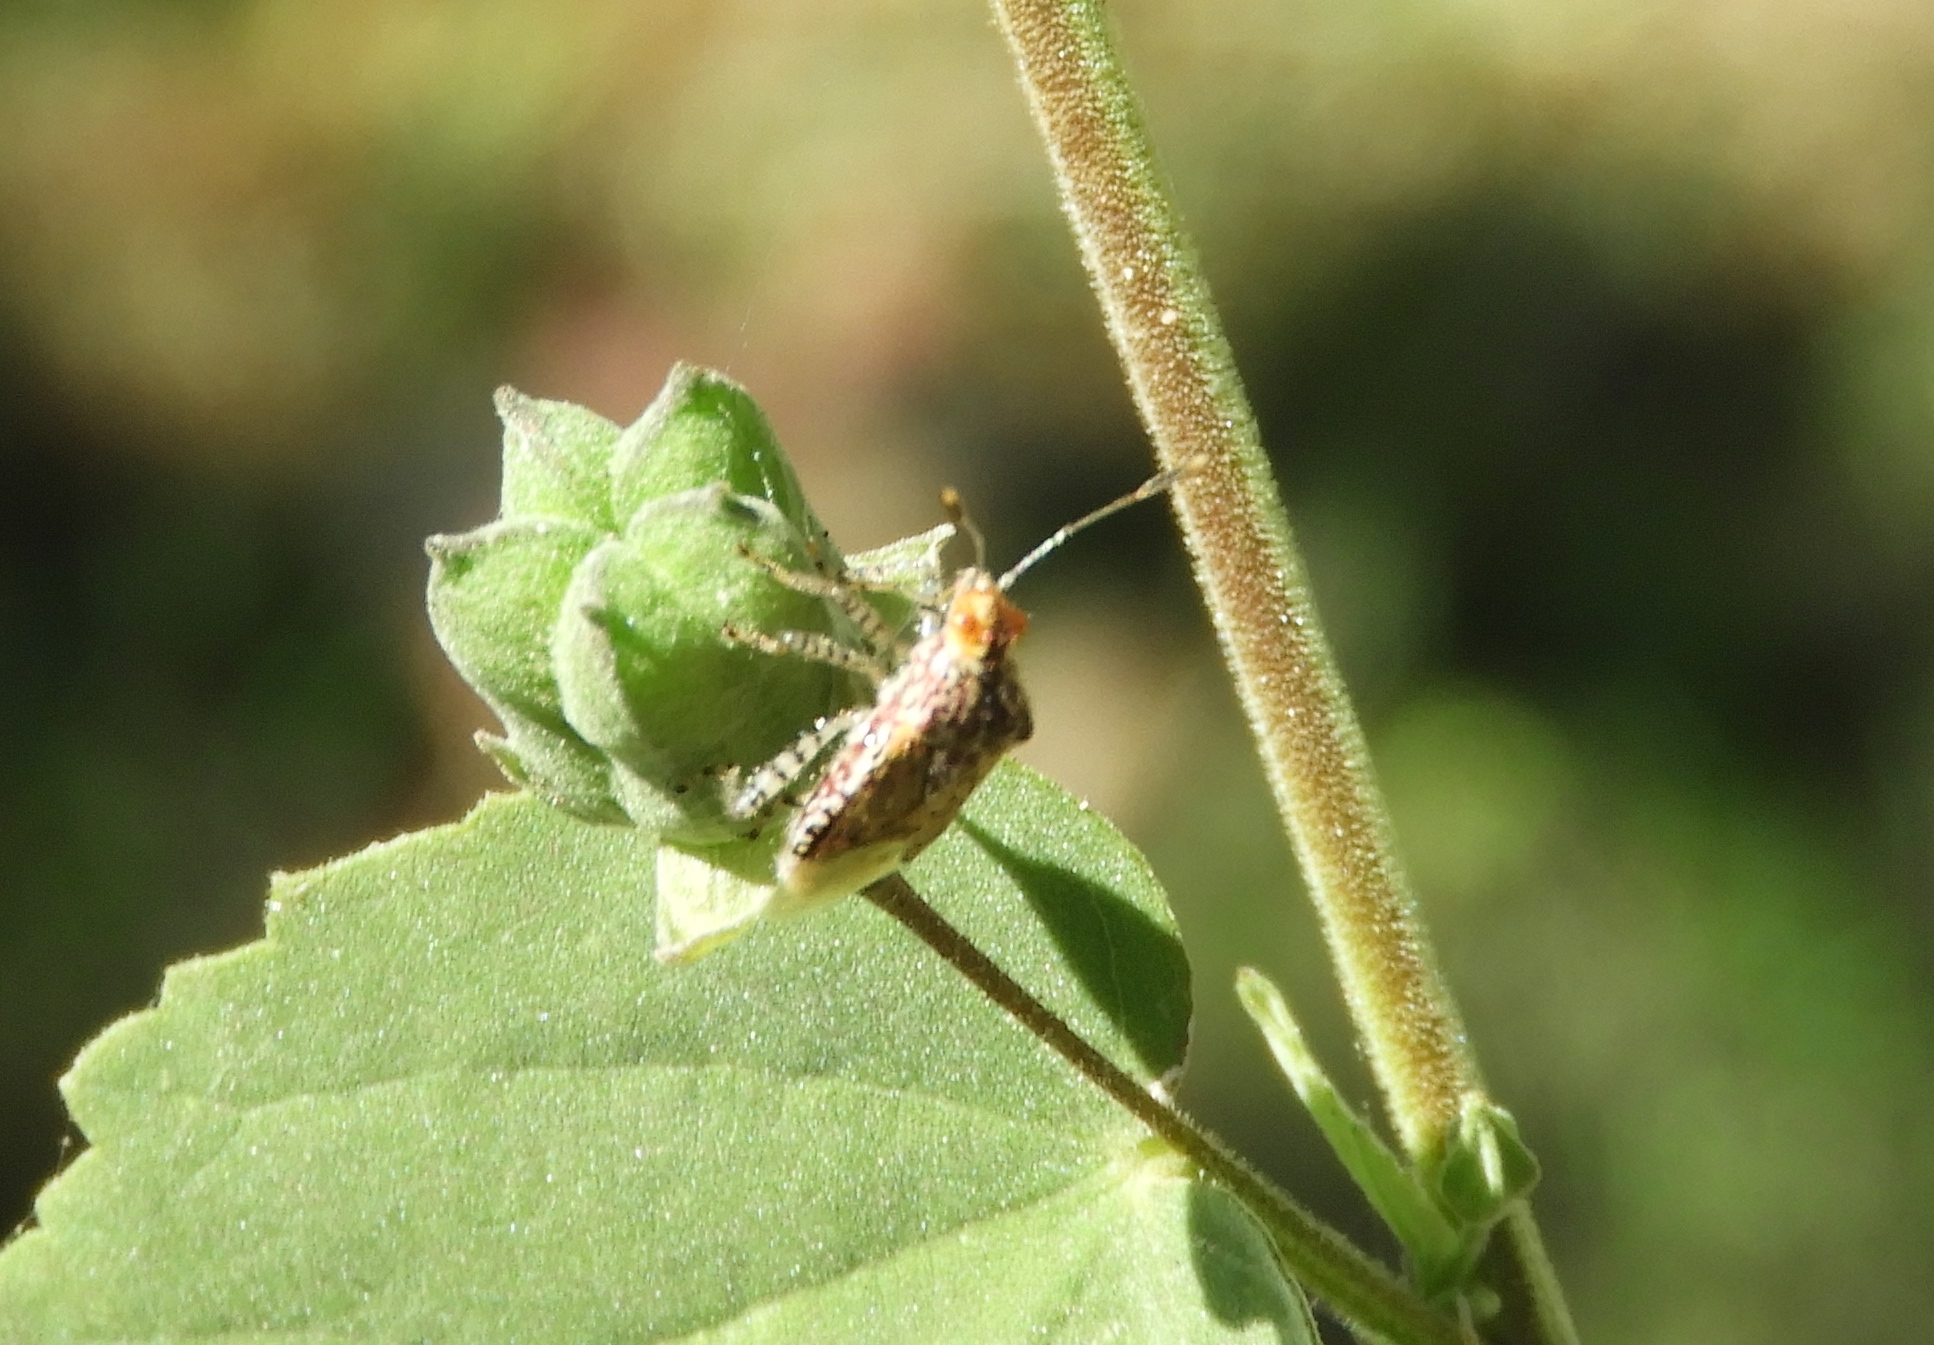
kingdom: Animalia
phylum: Arthropoda
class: Insecta
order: Hemiptera
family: Rhopalidae
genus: Niesthrea
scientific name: Niesthrea louisianica
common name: Scentless plant bug
